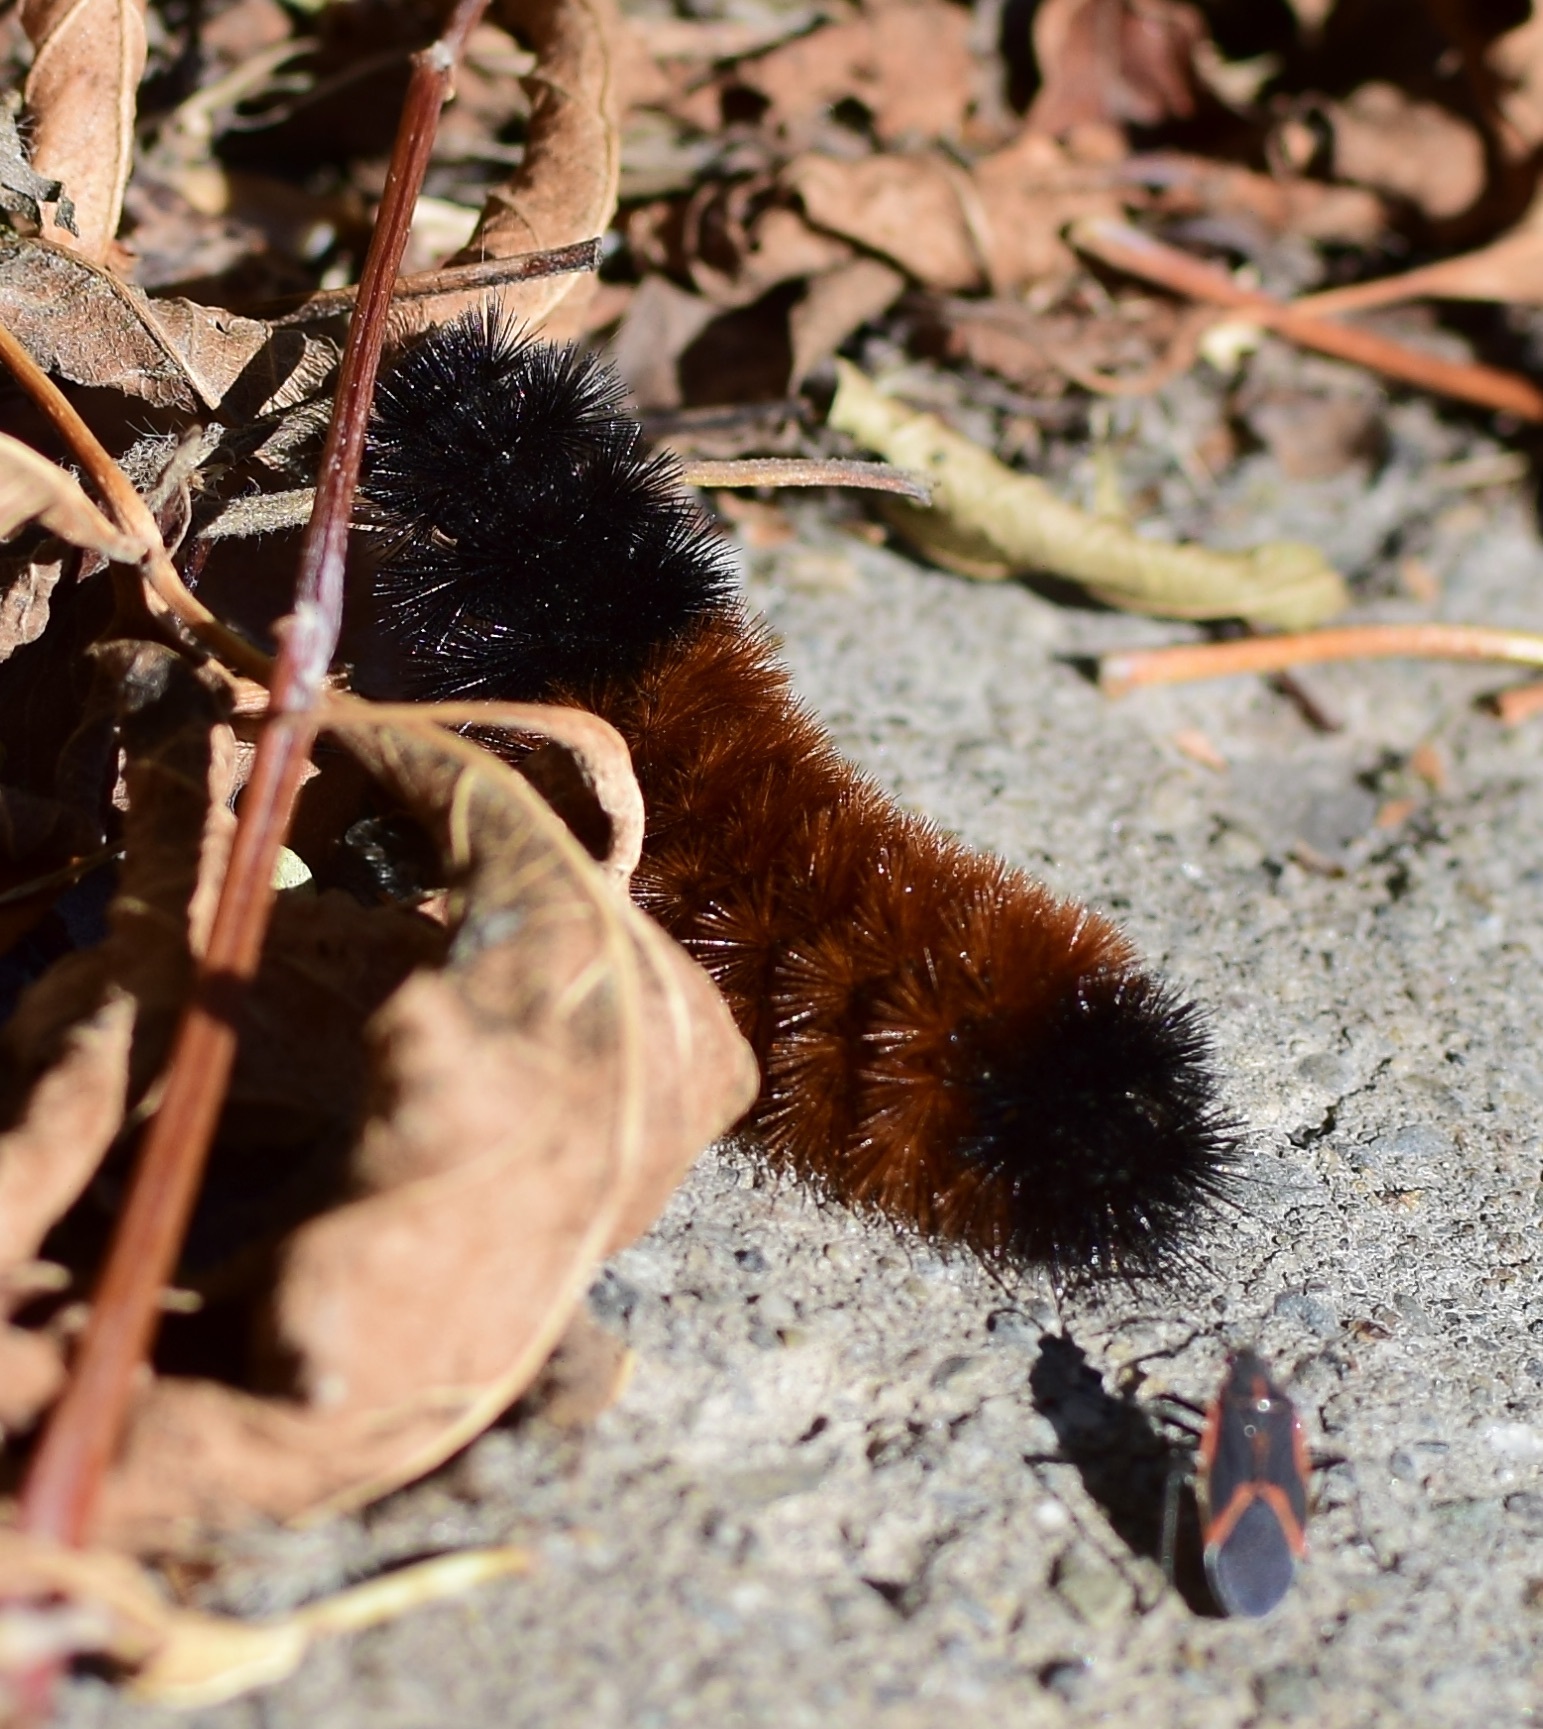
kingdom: Animalia
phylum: Arthropoda
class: Insecta
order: Lepidoptera
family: Erebidae
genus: Pyrrharctia
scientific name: Pyrrharctia isabella
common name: Isabella tiger moth
